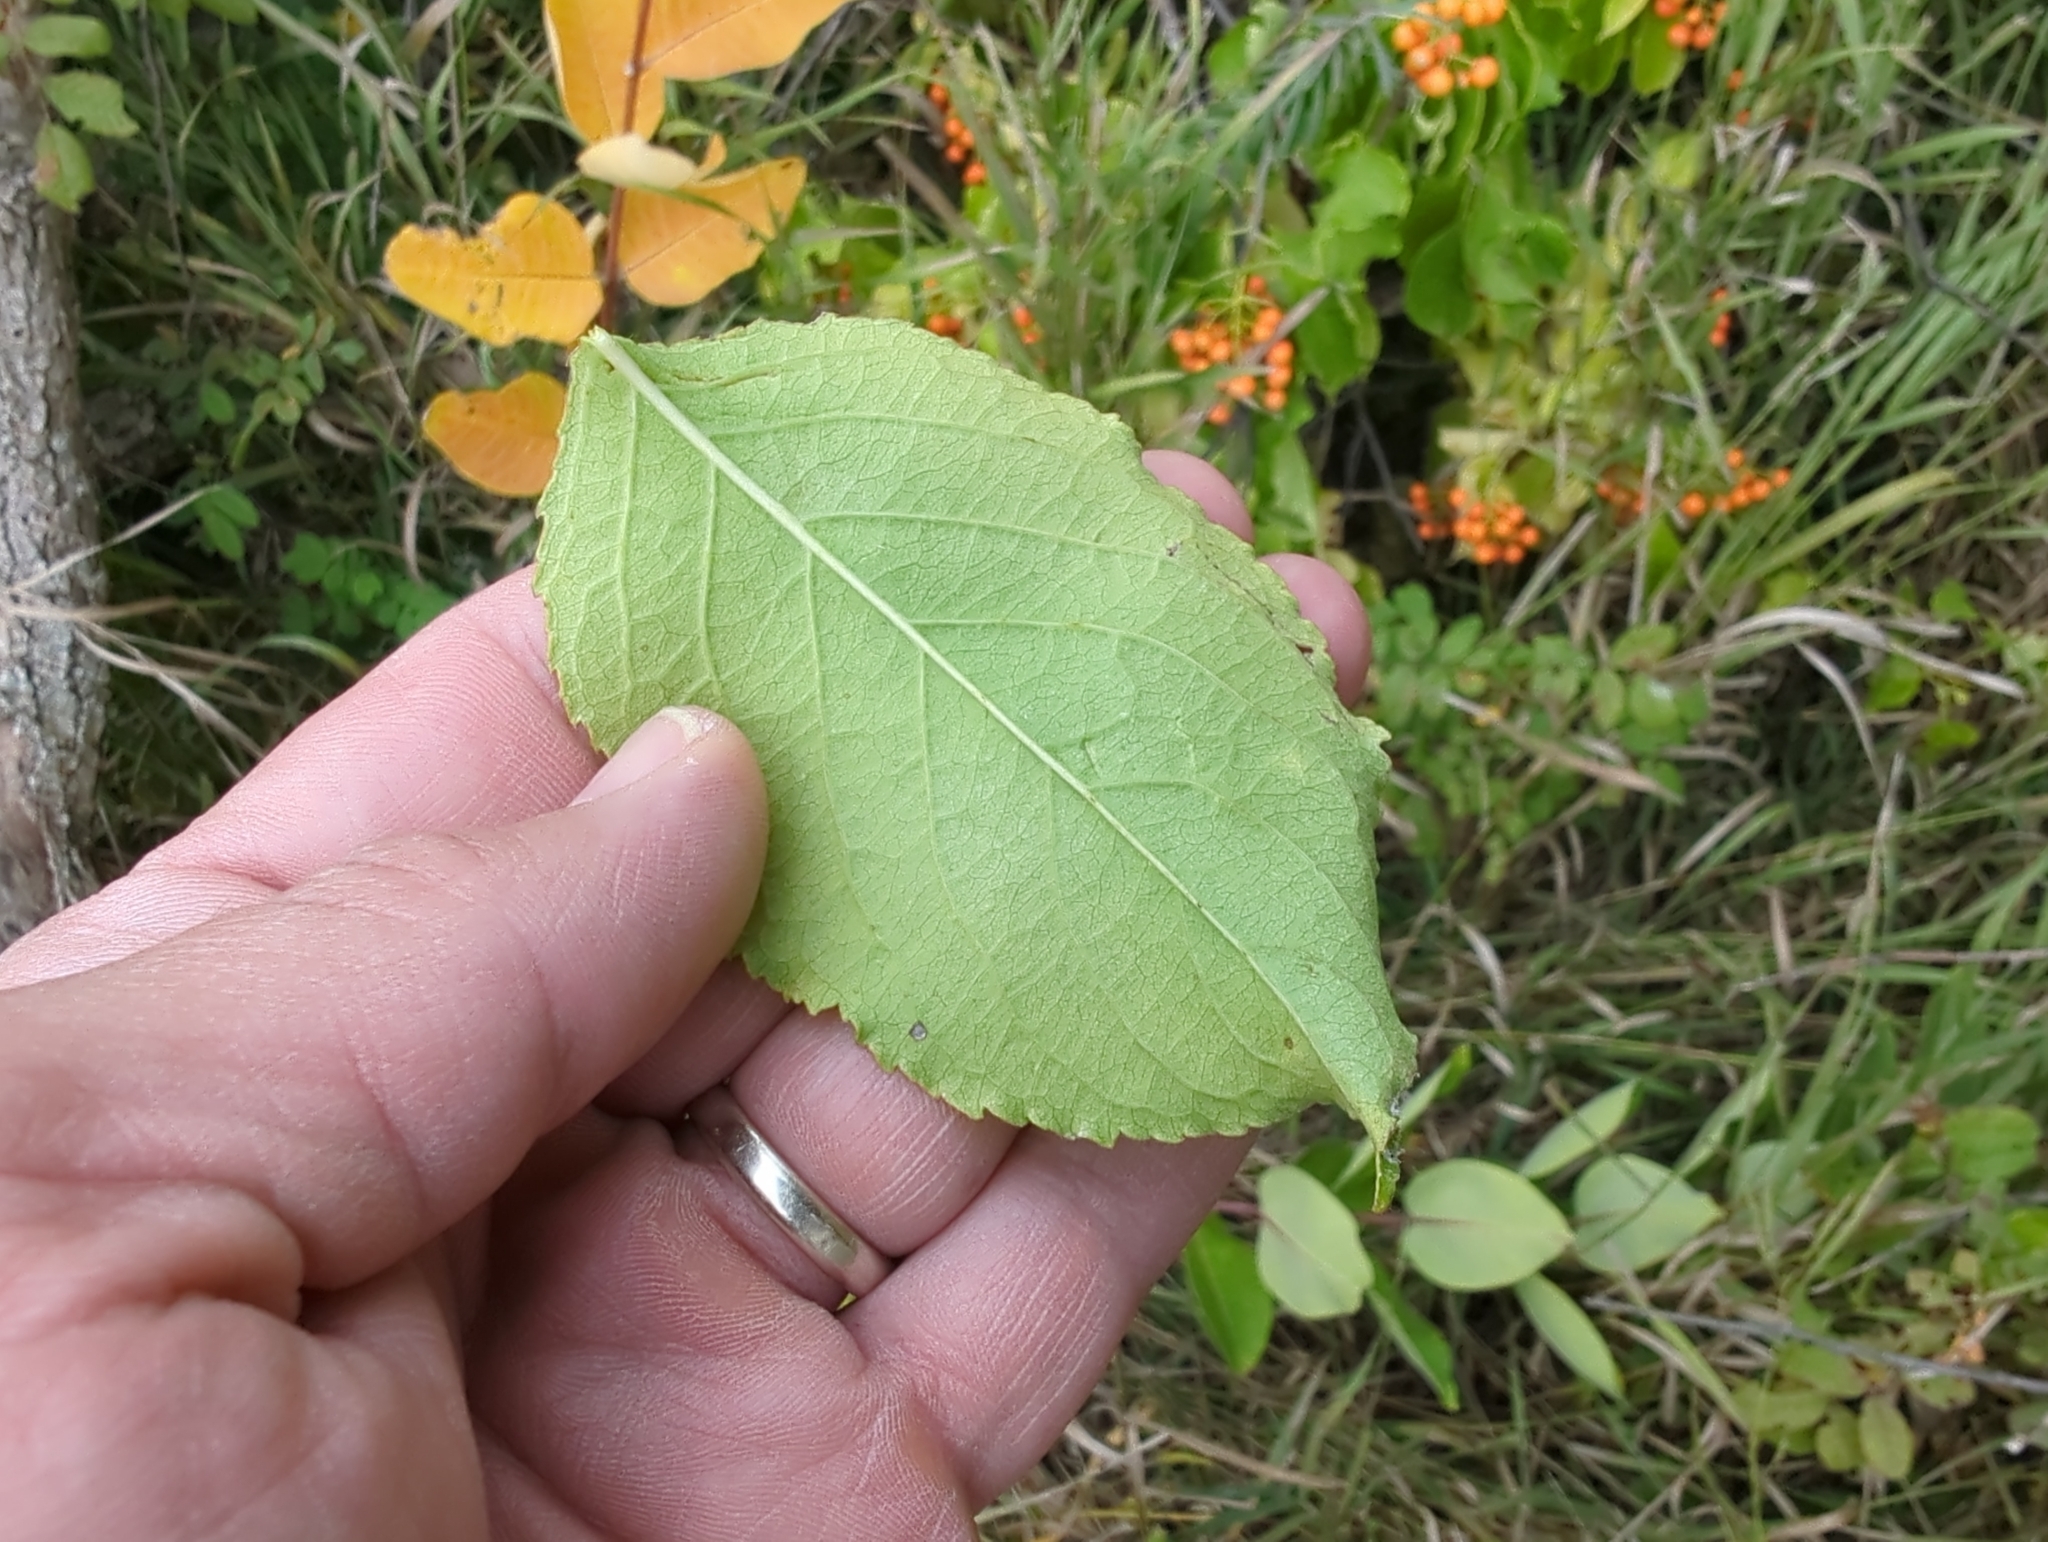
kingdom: Plantae
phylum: Tracheophyta
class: Magnoliopsida
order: Celastrales
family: Celastraceae
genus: Celastrus
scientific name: Celastrus scandens
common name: American bittersweet
